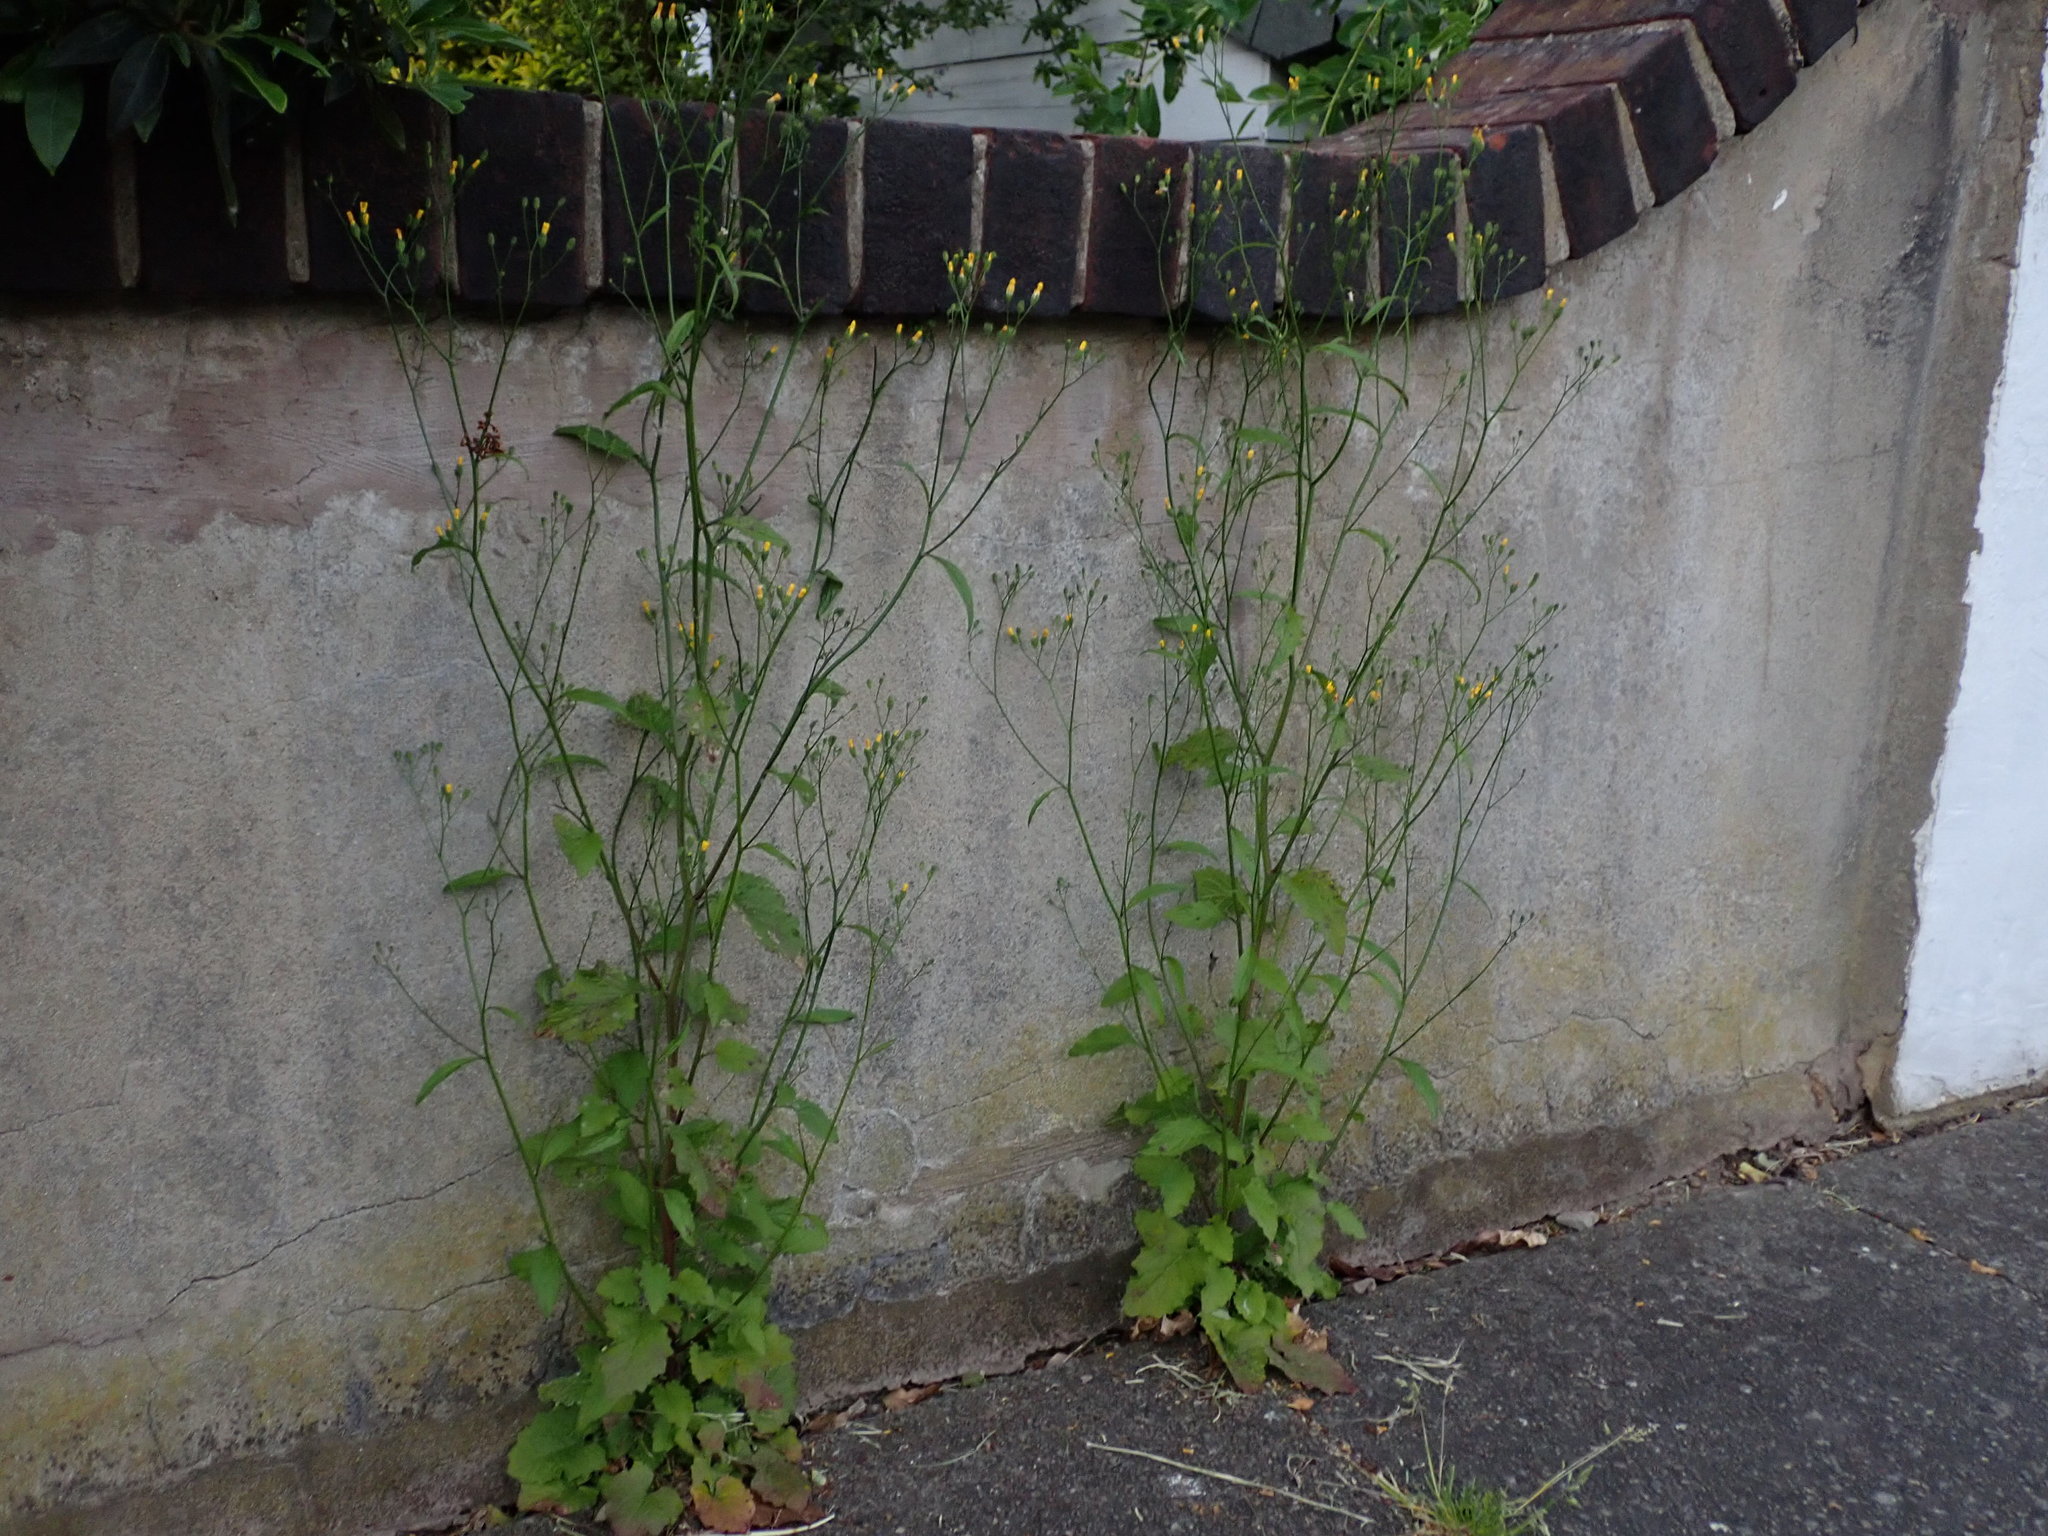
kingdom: Plantae
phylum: Tracheophyta
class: Magnoliopsida
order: Asterales
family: Asteraceae
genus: Lapsana
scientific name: Lapsana communis
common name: Nipplewort
